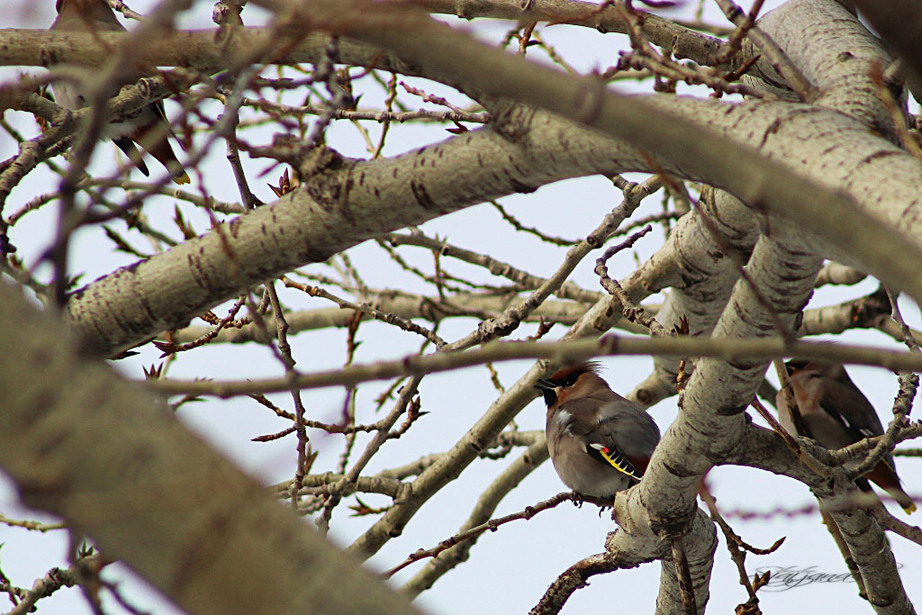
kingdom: Animalia
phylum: Chordata
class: Aves
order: Passeriformes
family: Bombycillidae
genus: Bombycilla
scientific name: Bombycilla garrulus
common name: Bohemian waxwing
